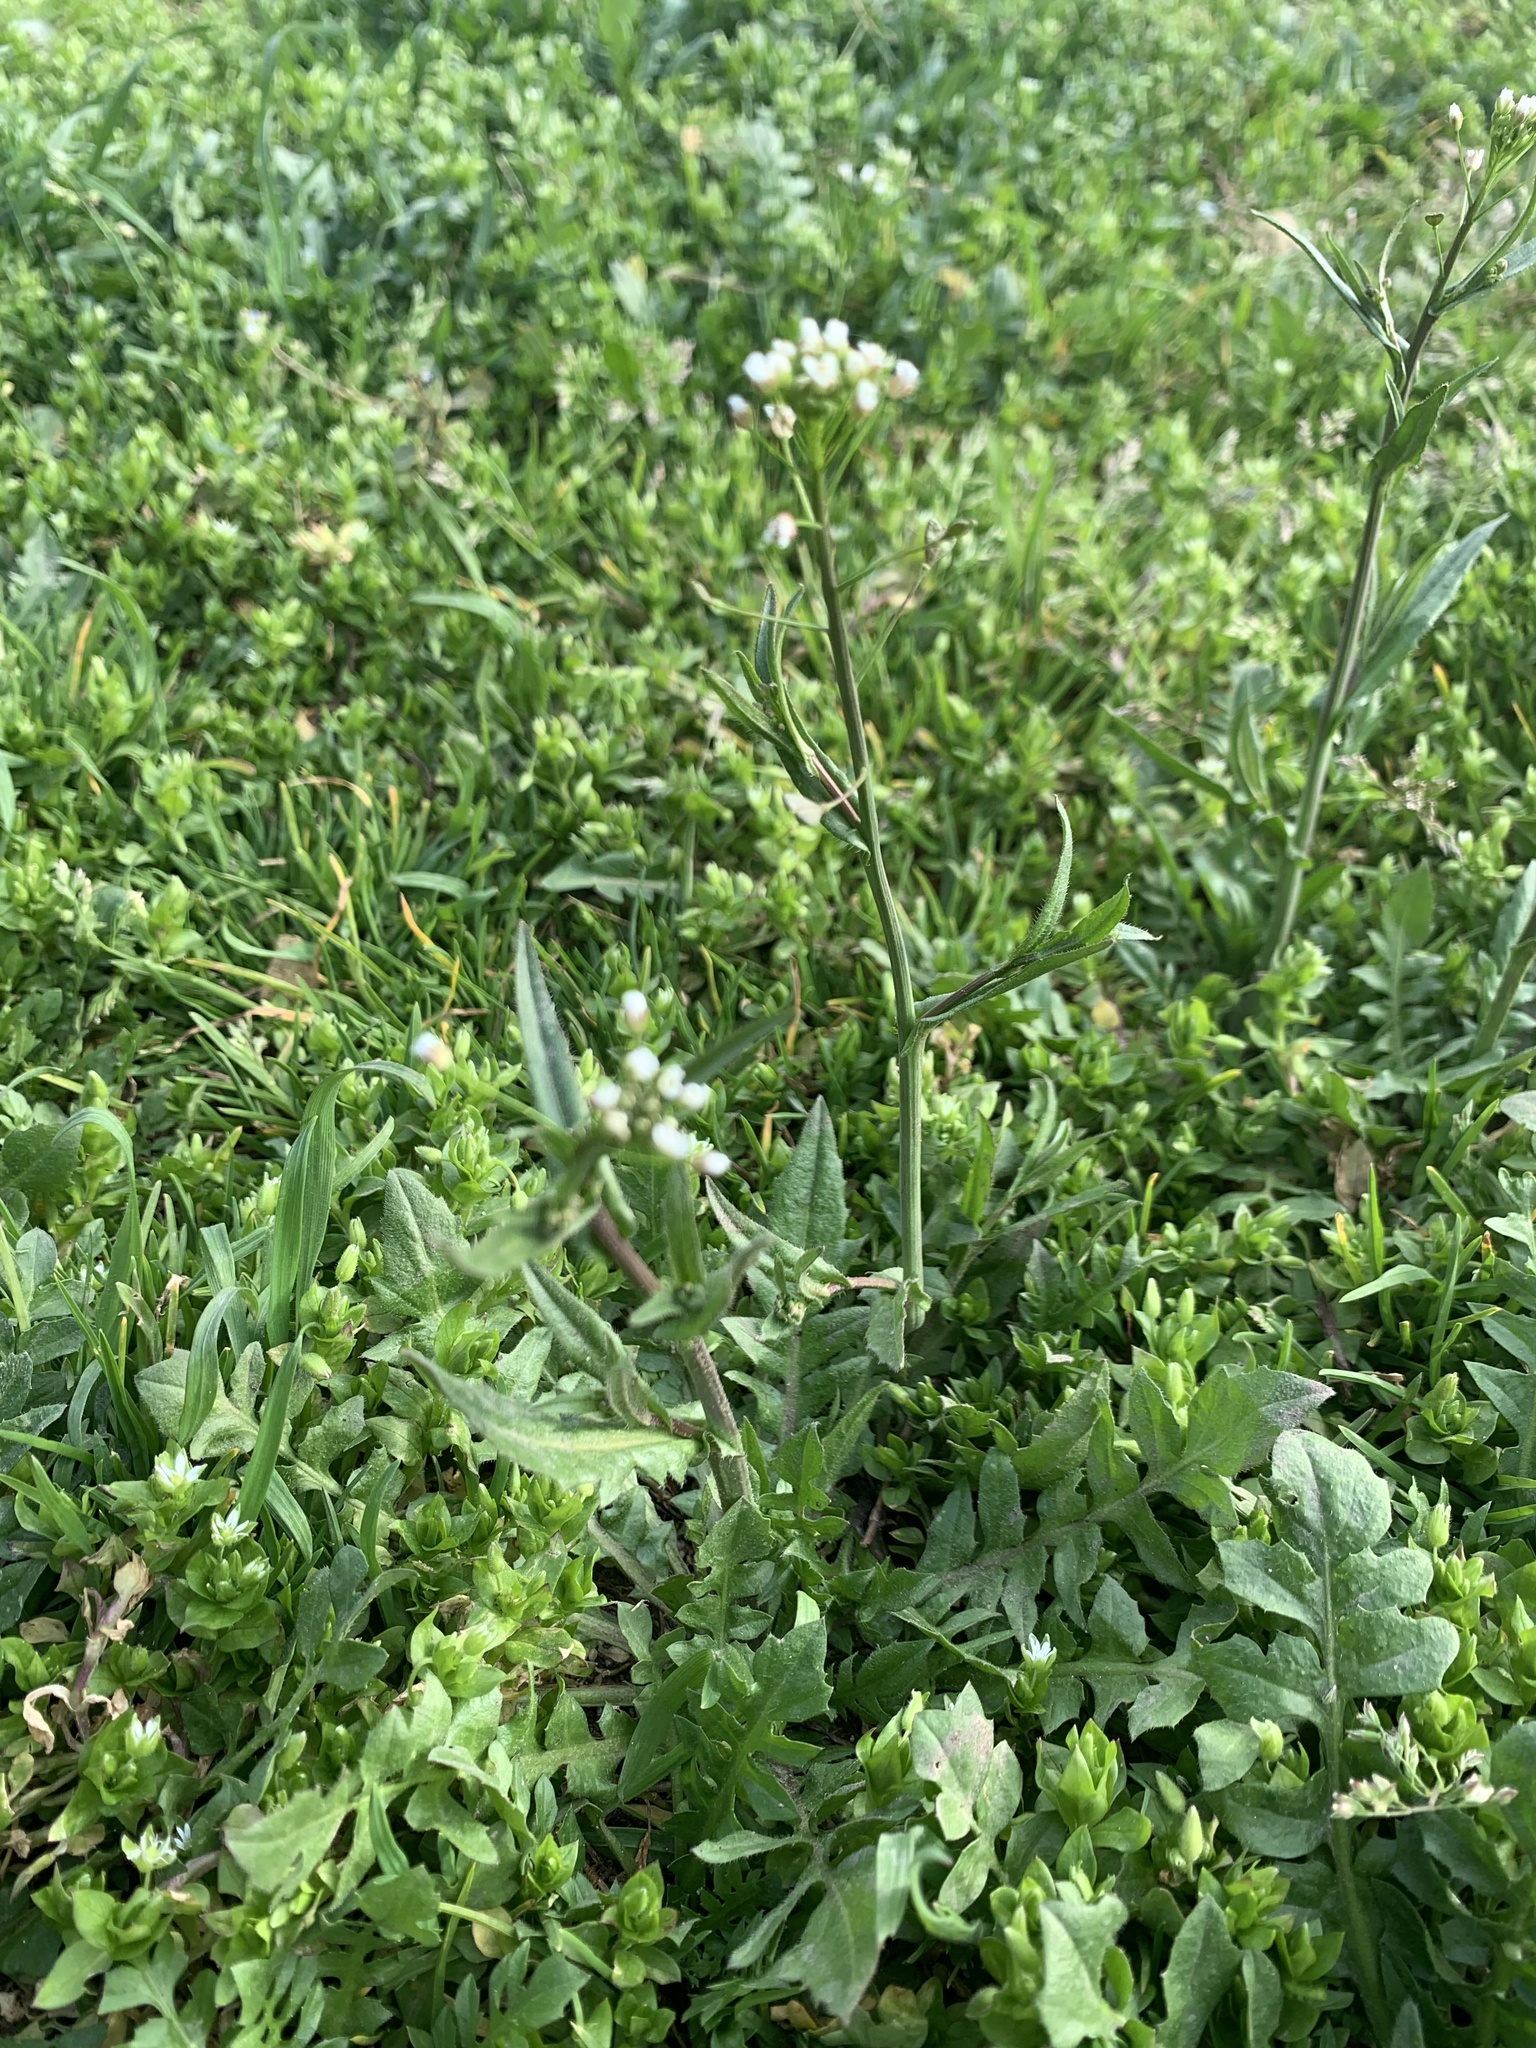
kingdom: Plantae
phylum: Tracheophyta
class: Magnoliopsida
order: Brassicales
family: Brassicaceae
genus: Capsella
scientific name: Capsella bursa-pastoris
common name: Shepherd's purse
